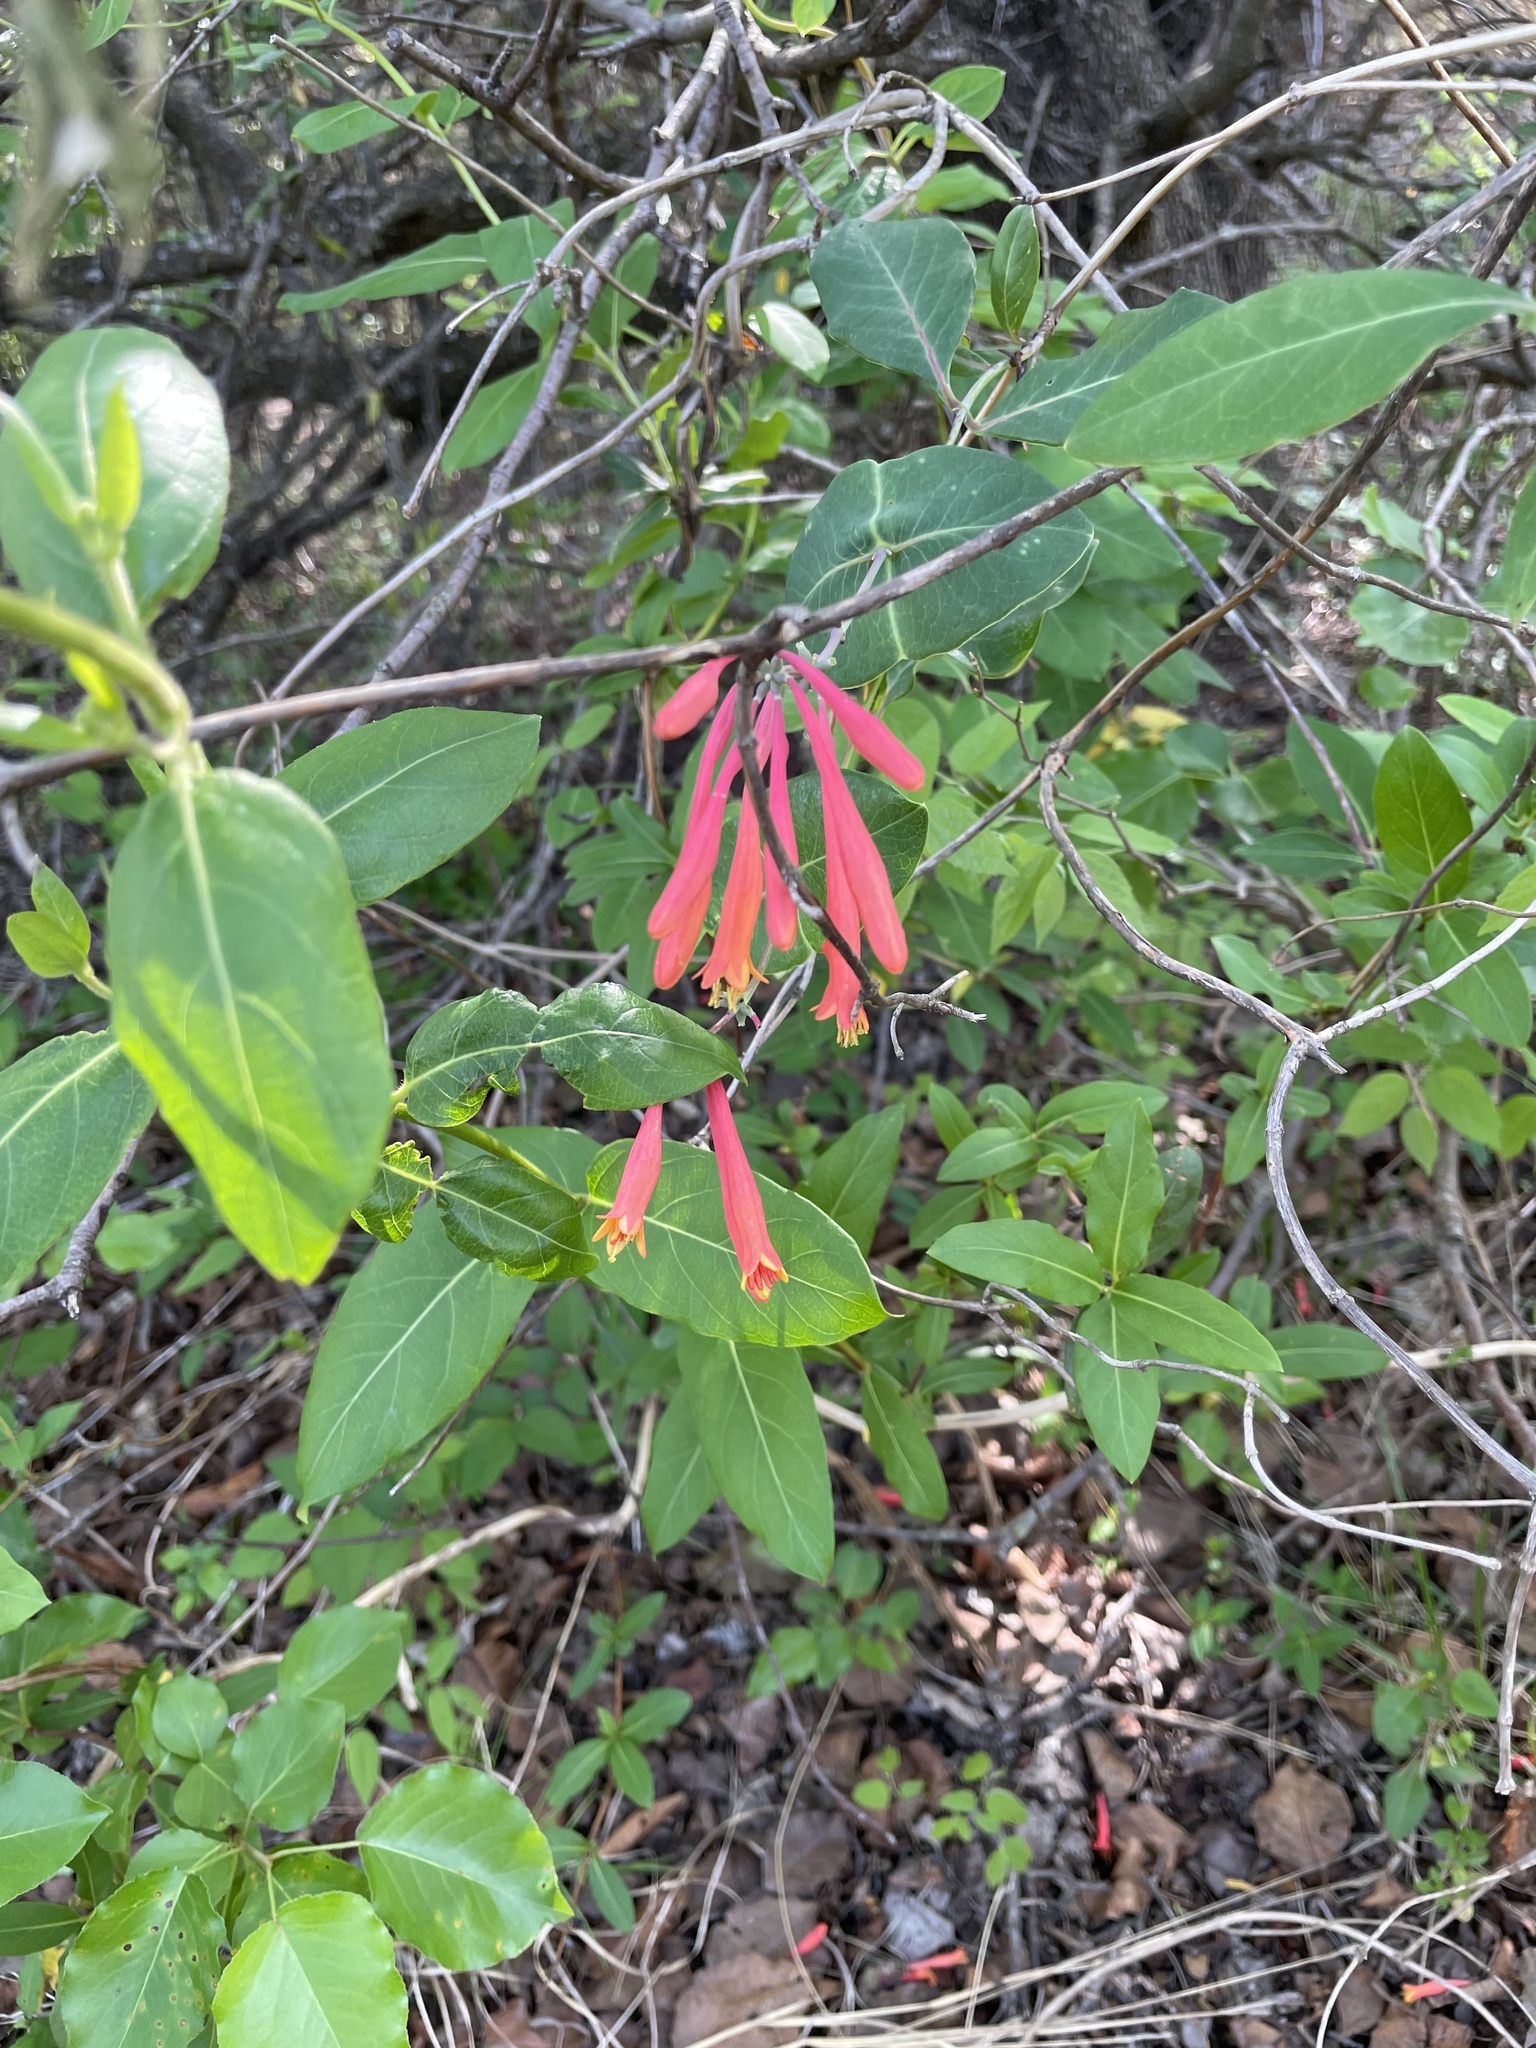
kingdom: Plantae
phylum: Tracheophyta
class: Magnoliopsida
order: Dipsacales
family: Caprifoliaceae
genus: Lonicera
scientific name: Lonicera sempervirens
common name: Coral honeysuckle
